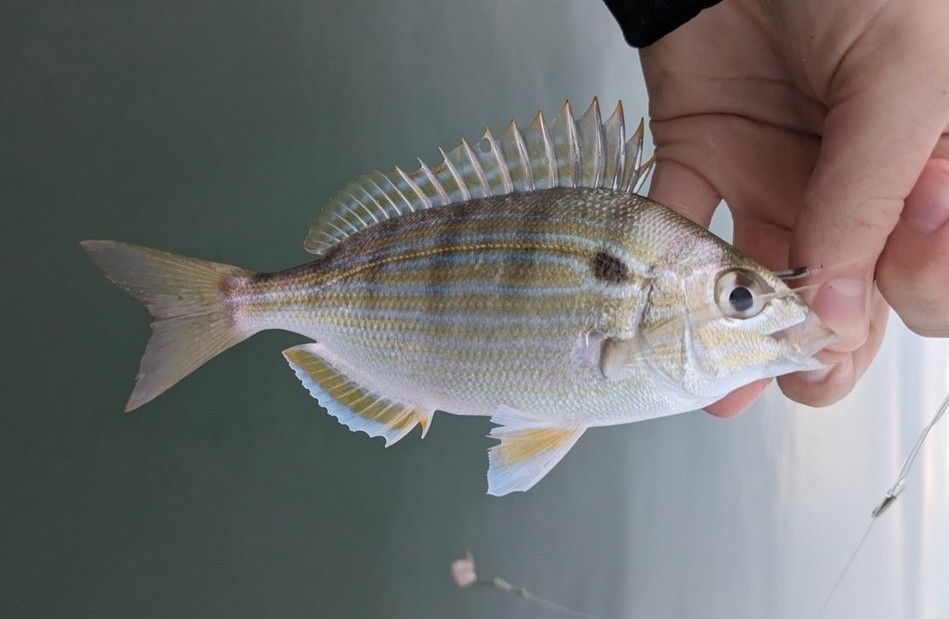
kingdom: Animalia
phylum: Chordata
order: Perciformes
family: Sparidae
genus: Lagodon
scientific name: Lagodon rhomboides
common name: Pinfish
